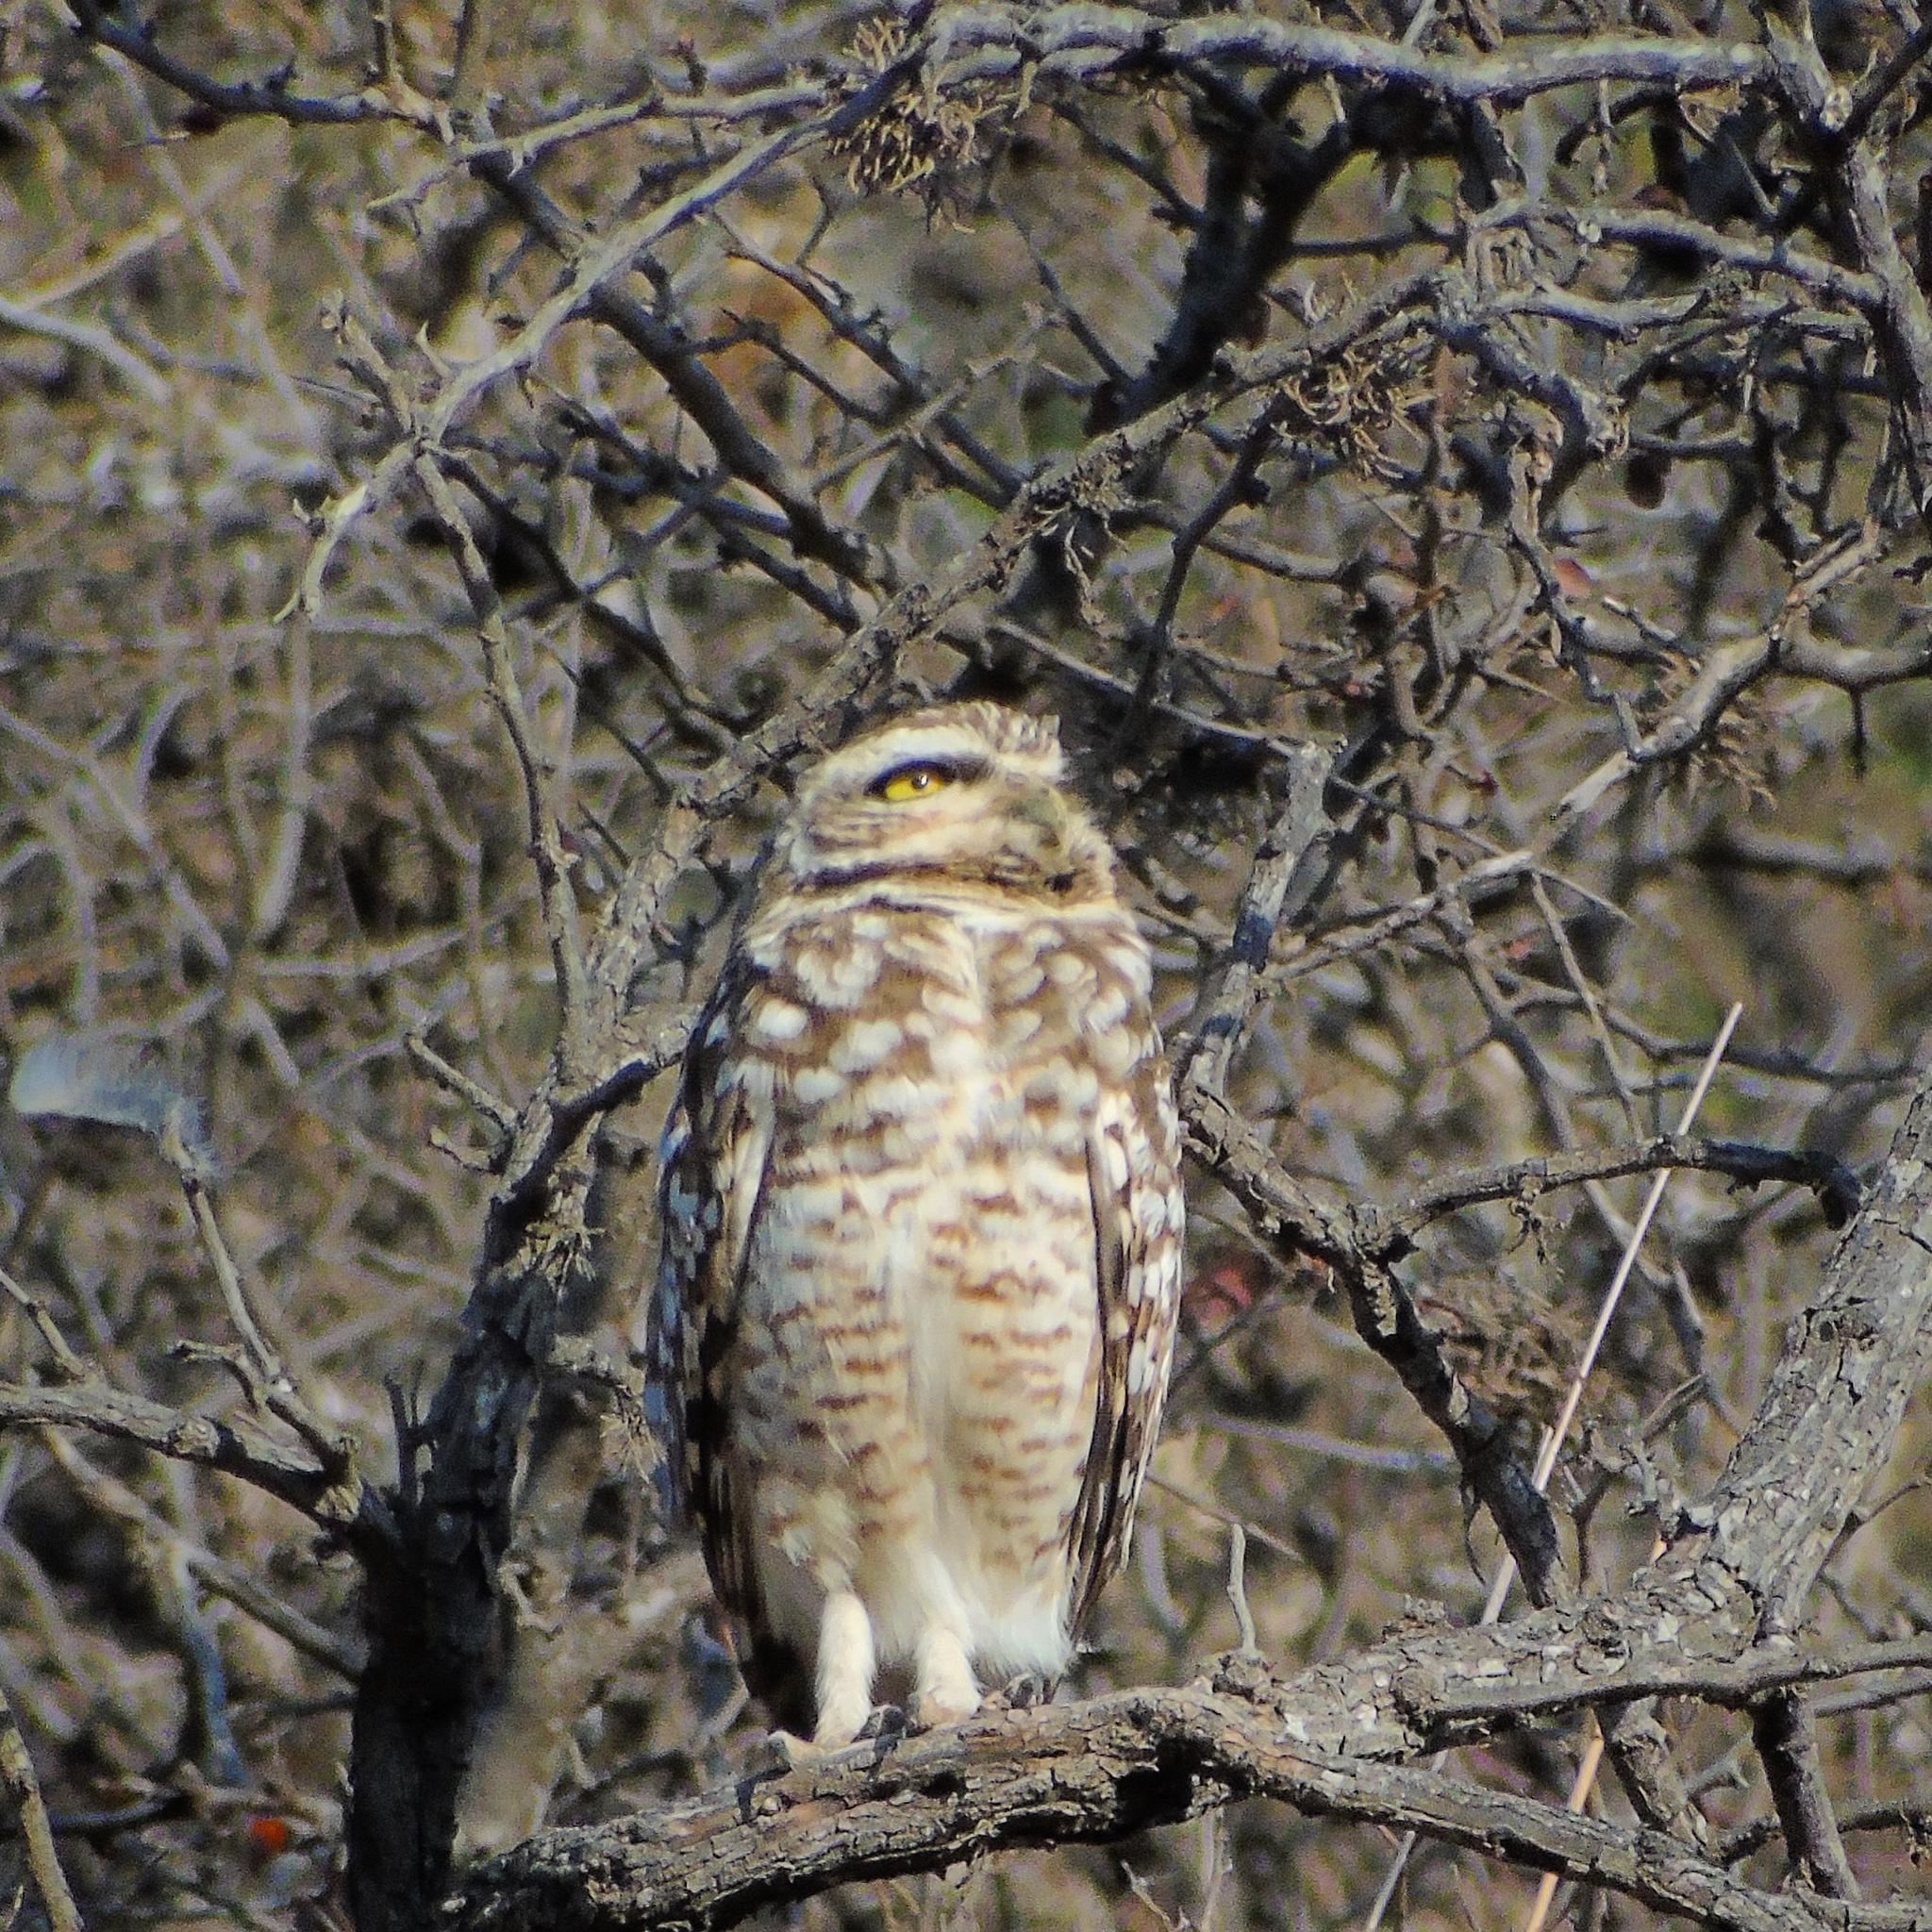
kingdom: Animalia
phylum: Chordata
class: Aves
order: Strigiformes
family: Strigidae
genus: Athene
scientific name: Athene cunicularia
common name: Burrowing owl
